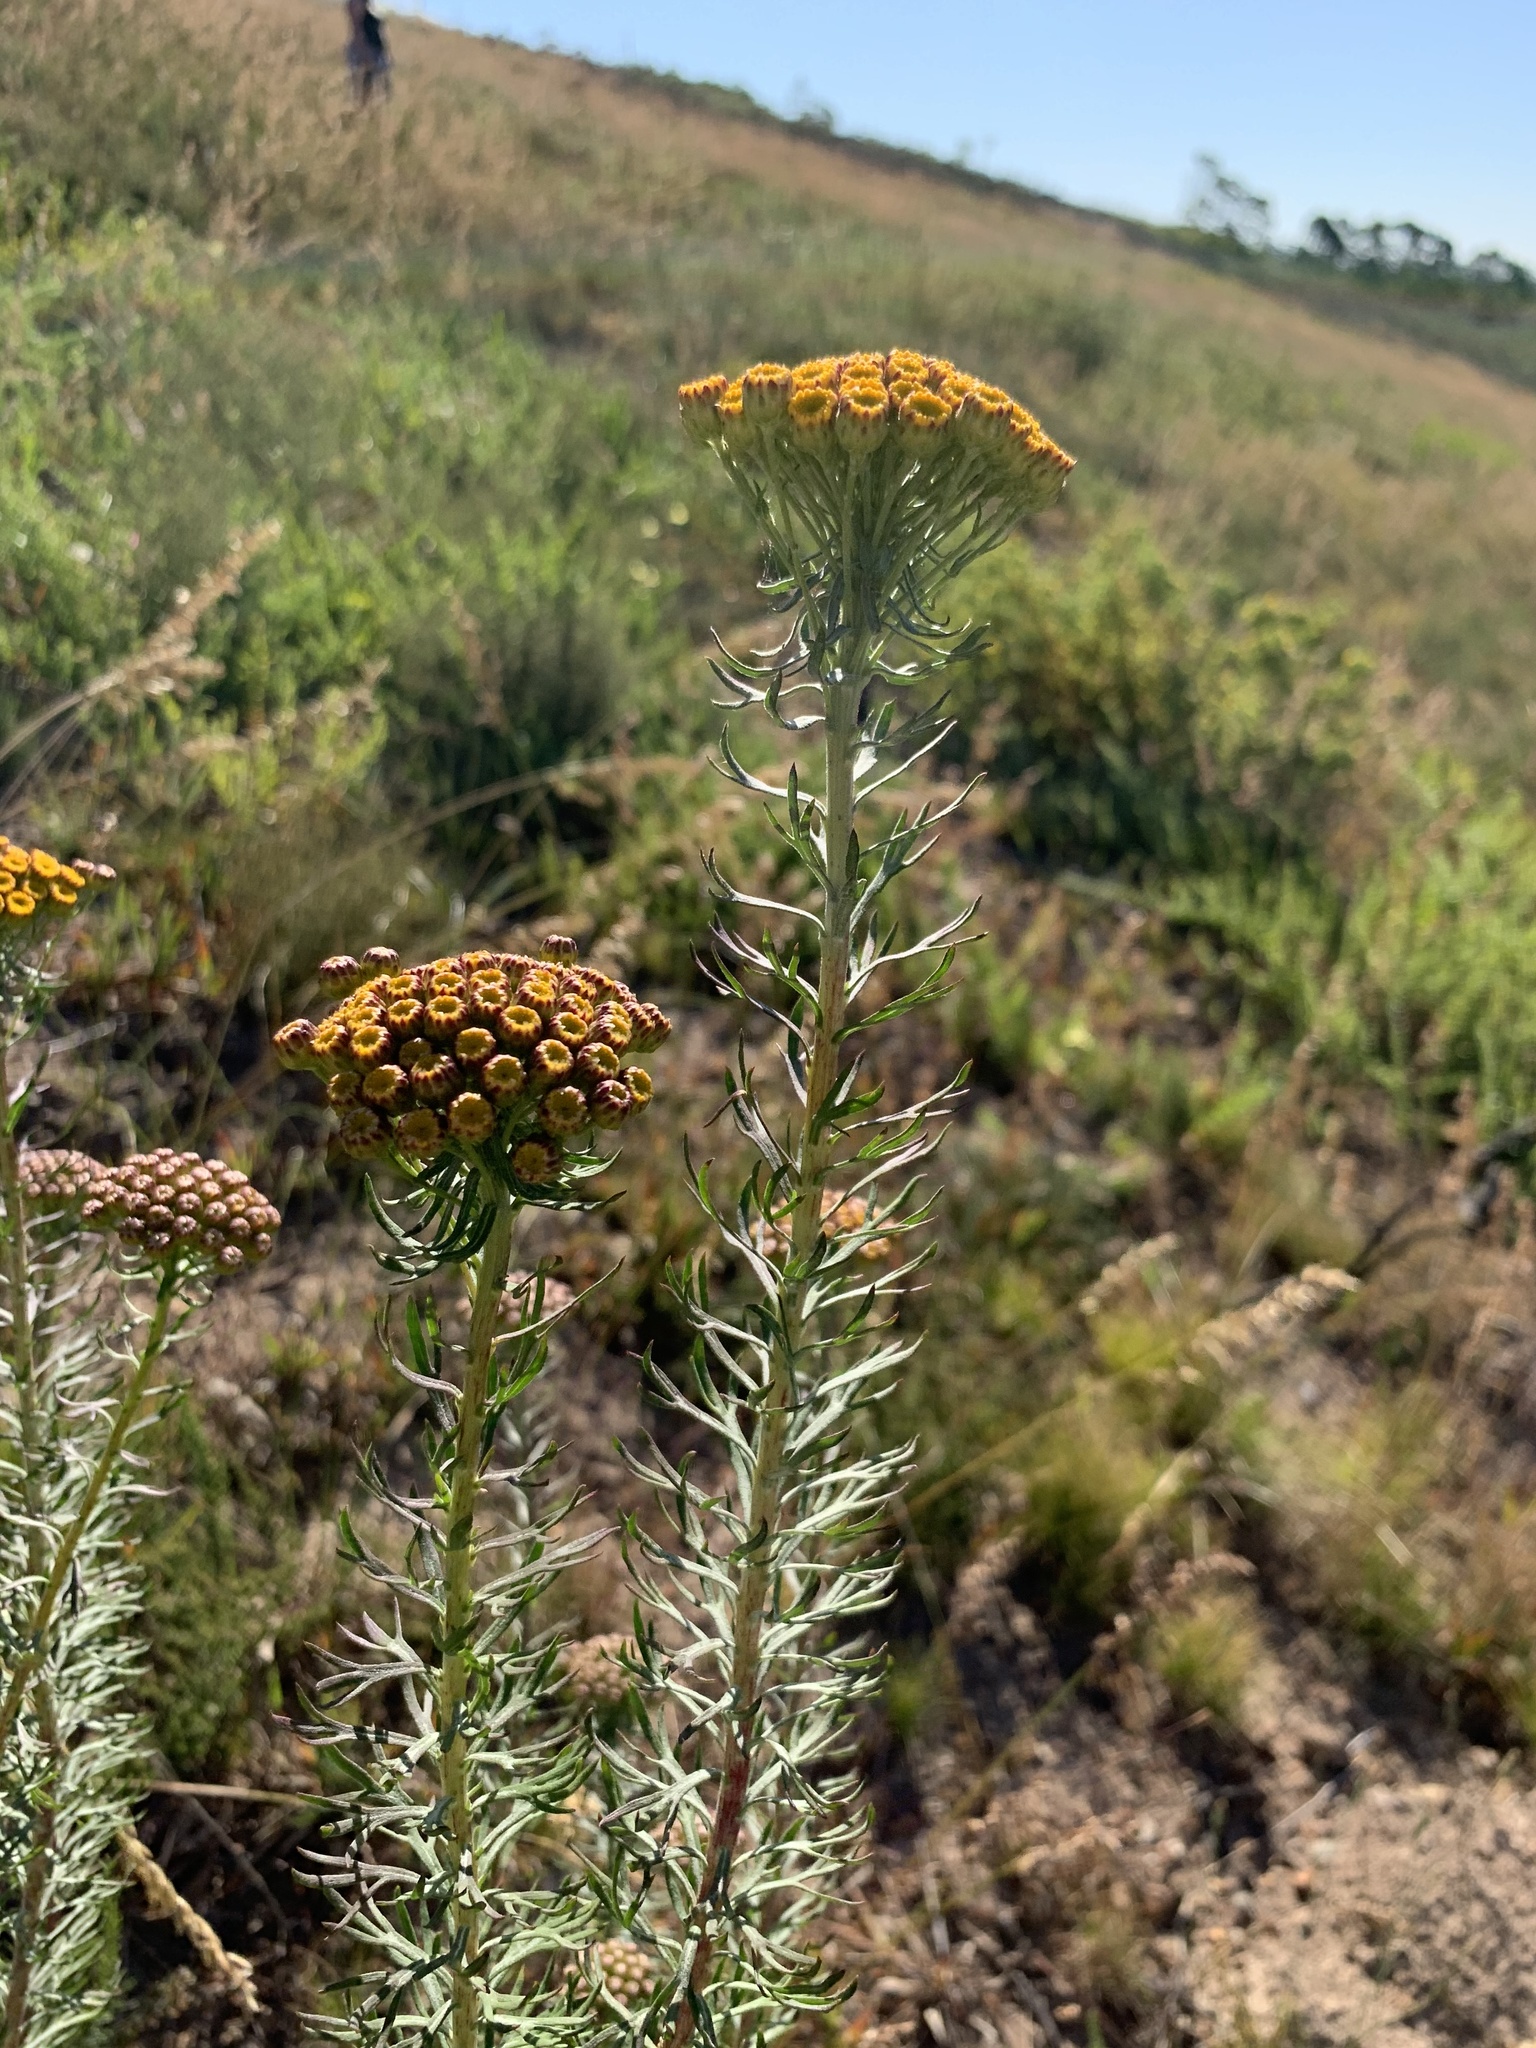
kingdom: Plantae
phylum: Tracheophyta
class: Magnoliopsida
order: Asterales
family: Asteraceae
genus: Athanasia
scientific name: Athanasia trifurcata
